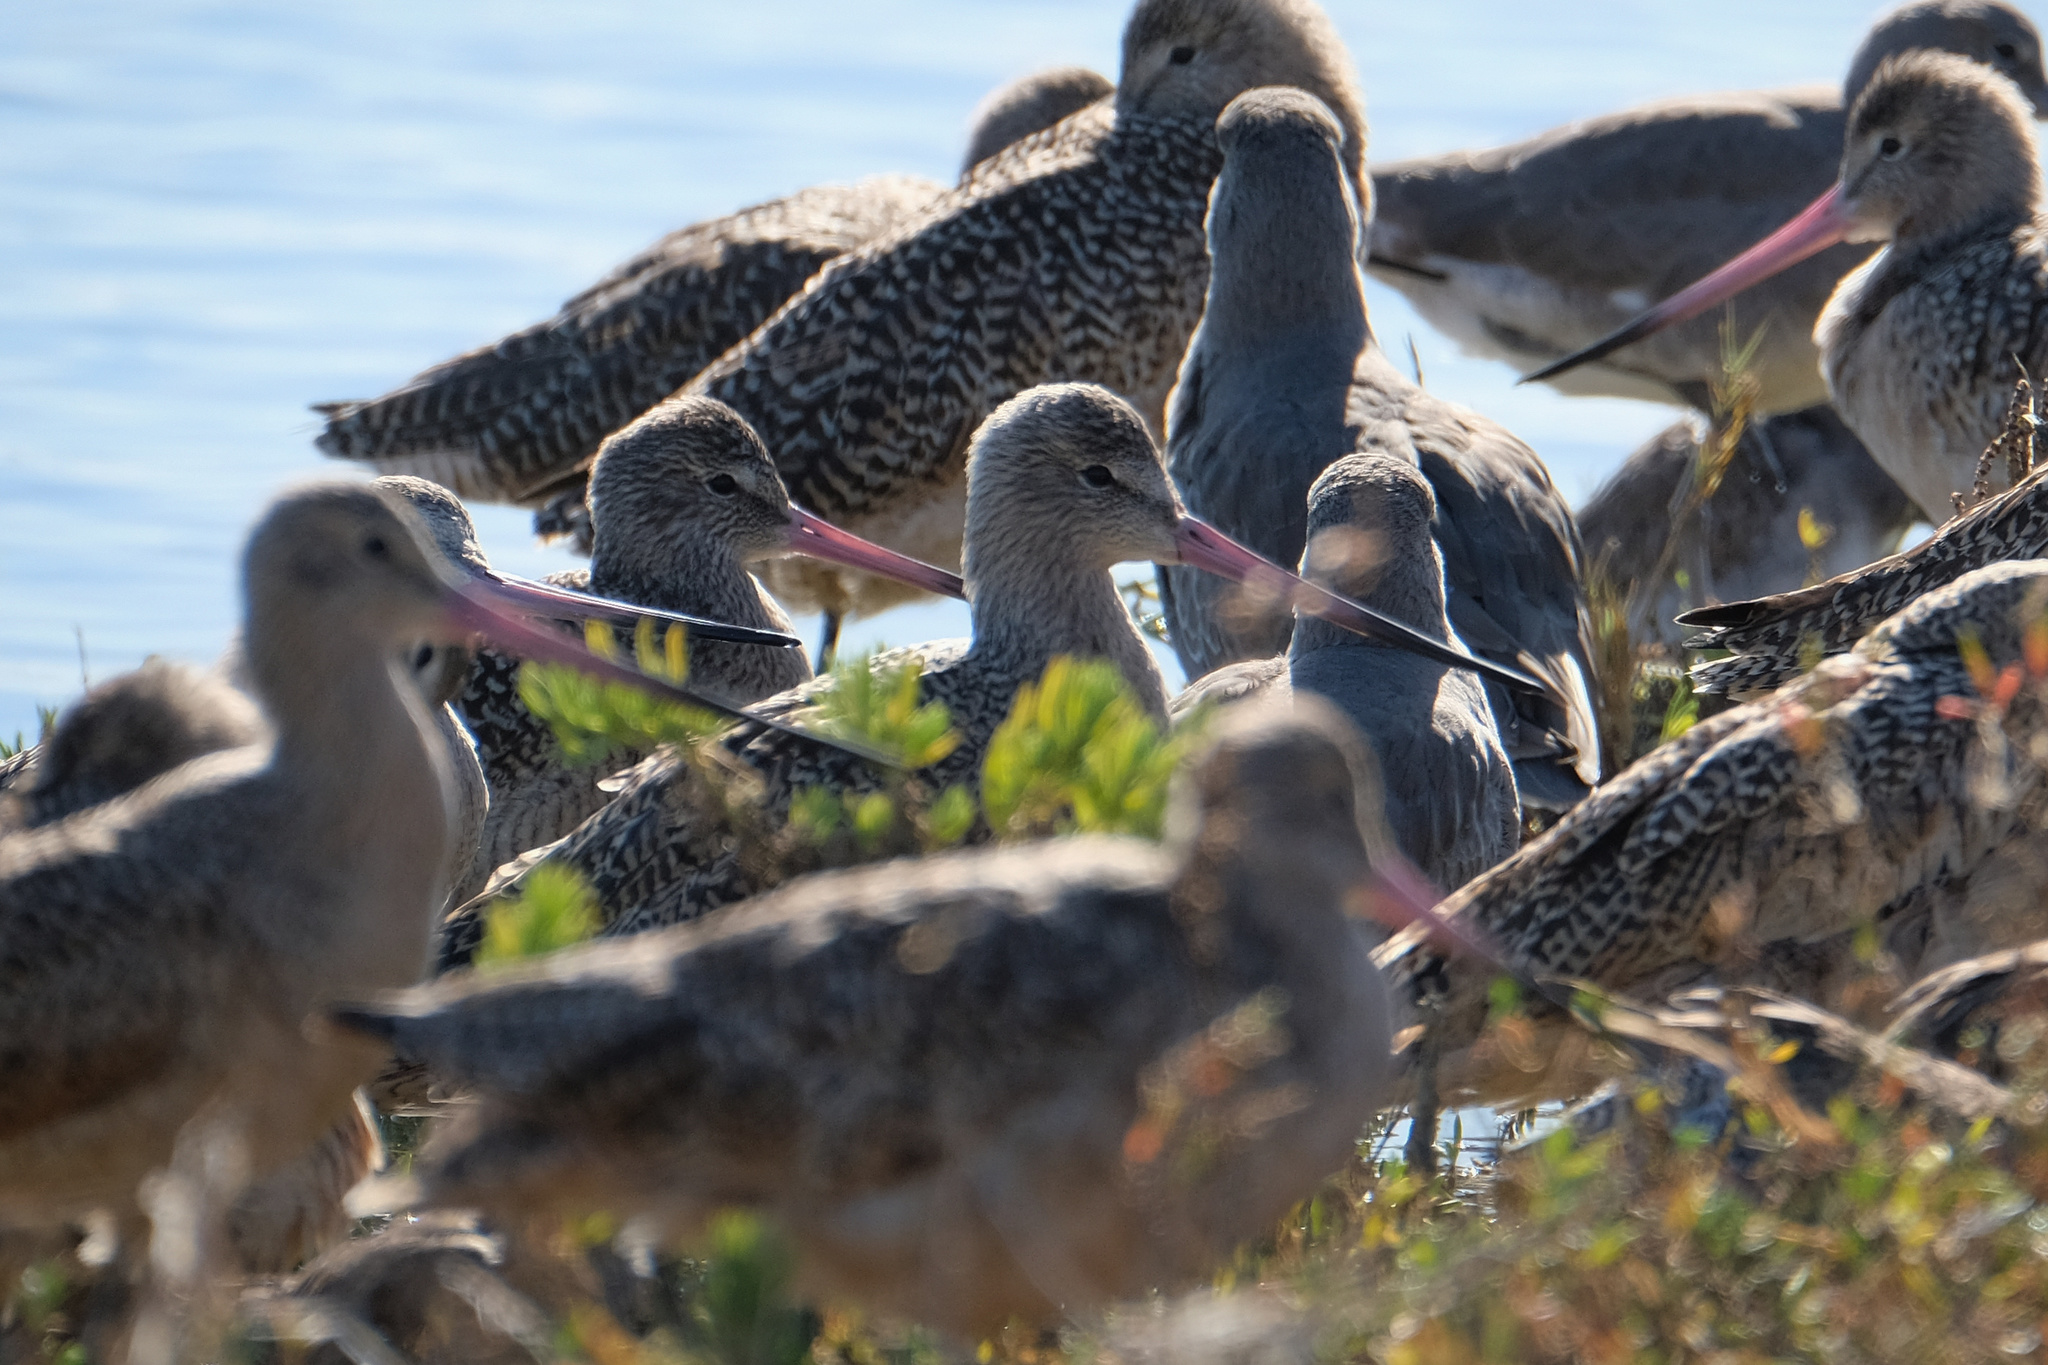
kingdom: Animalia
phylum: Chordata
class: Aves
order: Charadriiformes
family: Scolopacidae
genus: Limosa
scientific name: Limosa fedoa
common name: Marbled godwit
